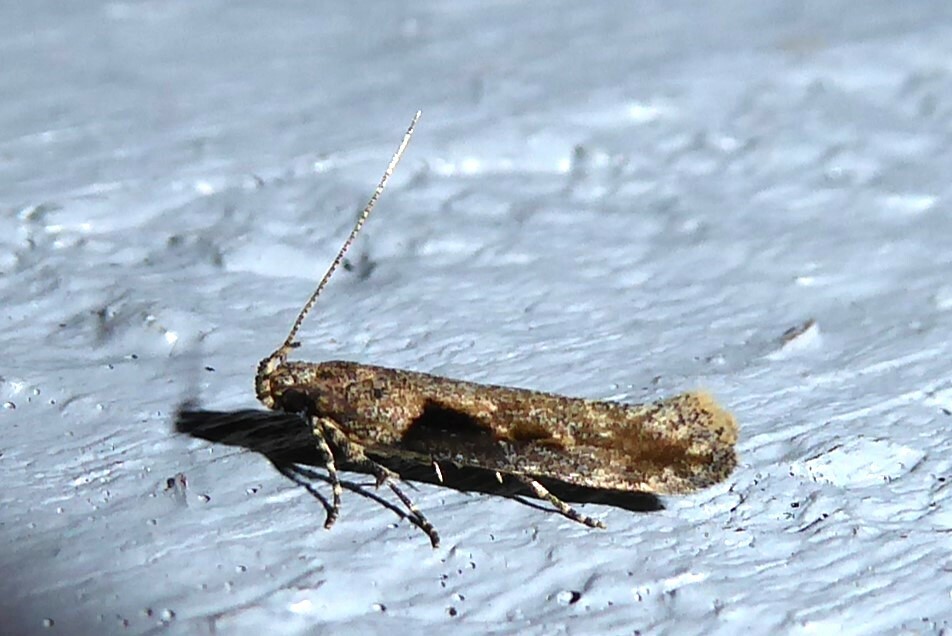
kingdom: Animalia
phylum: Arthropoda
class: Insecta
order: Lepidoptera
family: Gelechiidae
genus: Symmetrischema
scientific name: Symmetrischema tangolias
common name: Moth
